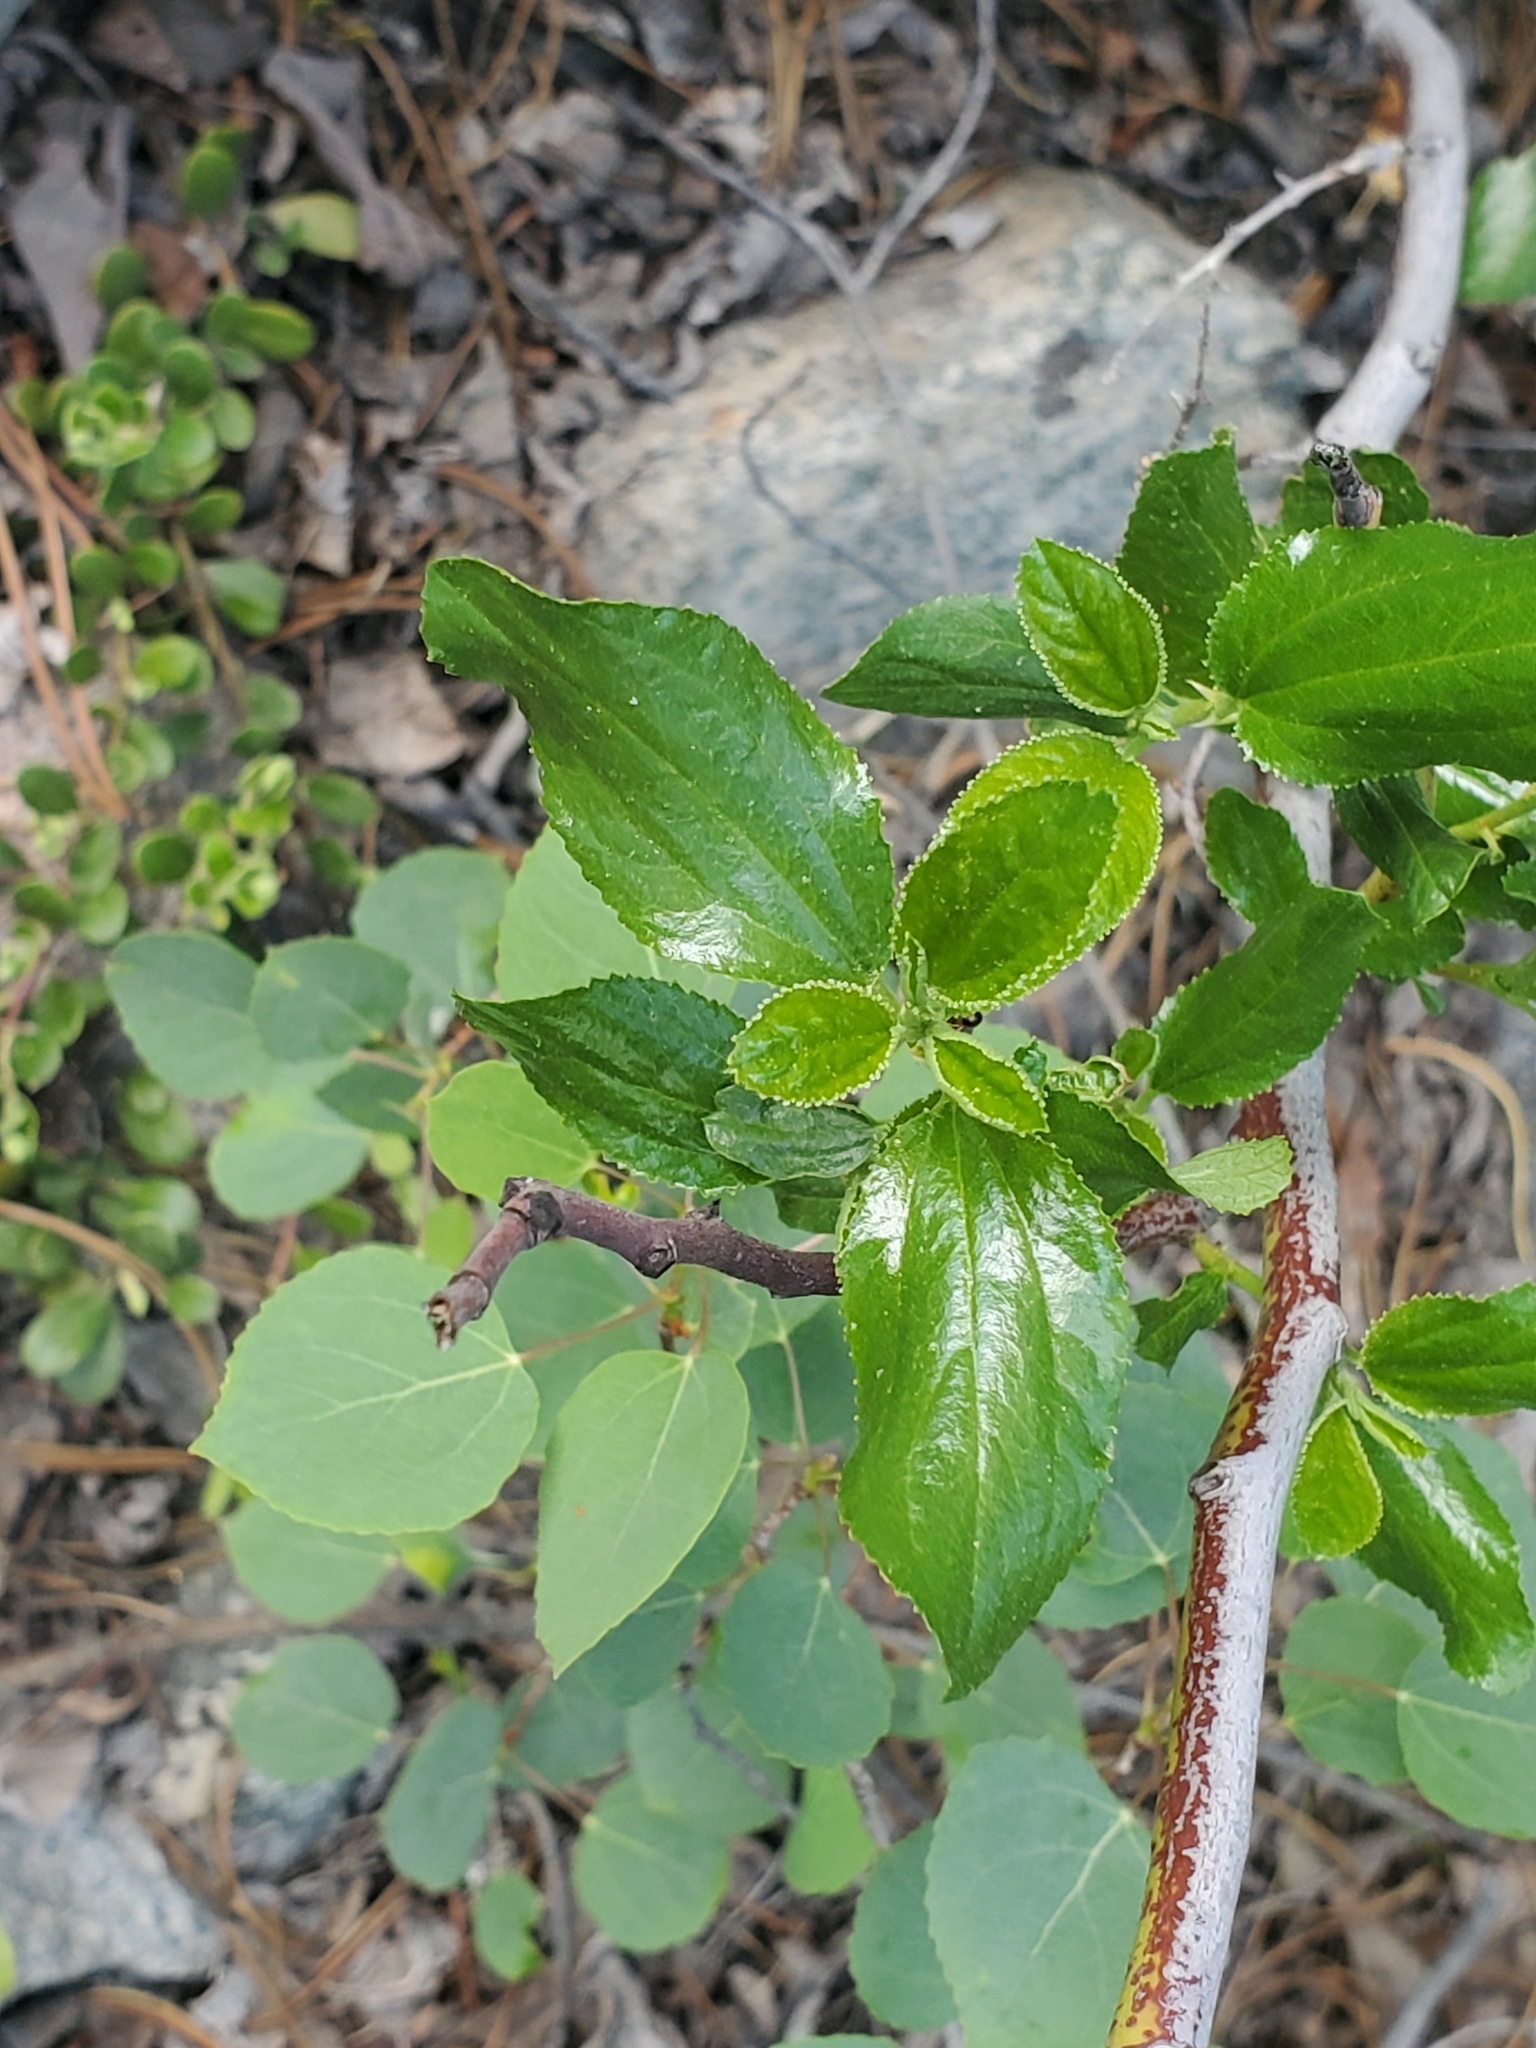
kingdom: Plantae
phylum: Tracheophyta
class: Magnoliopsida
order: Rosales
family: Rhamnaceae
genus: Ceanothus
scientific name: Ceanothus velutinus
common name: Snowbrush
